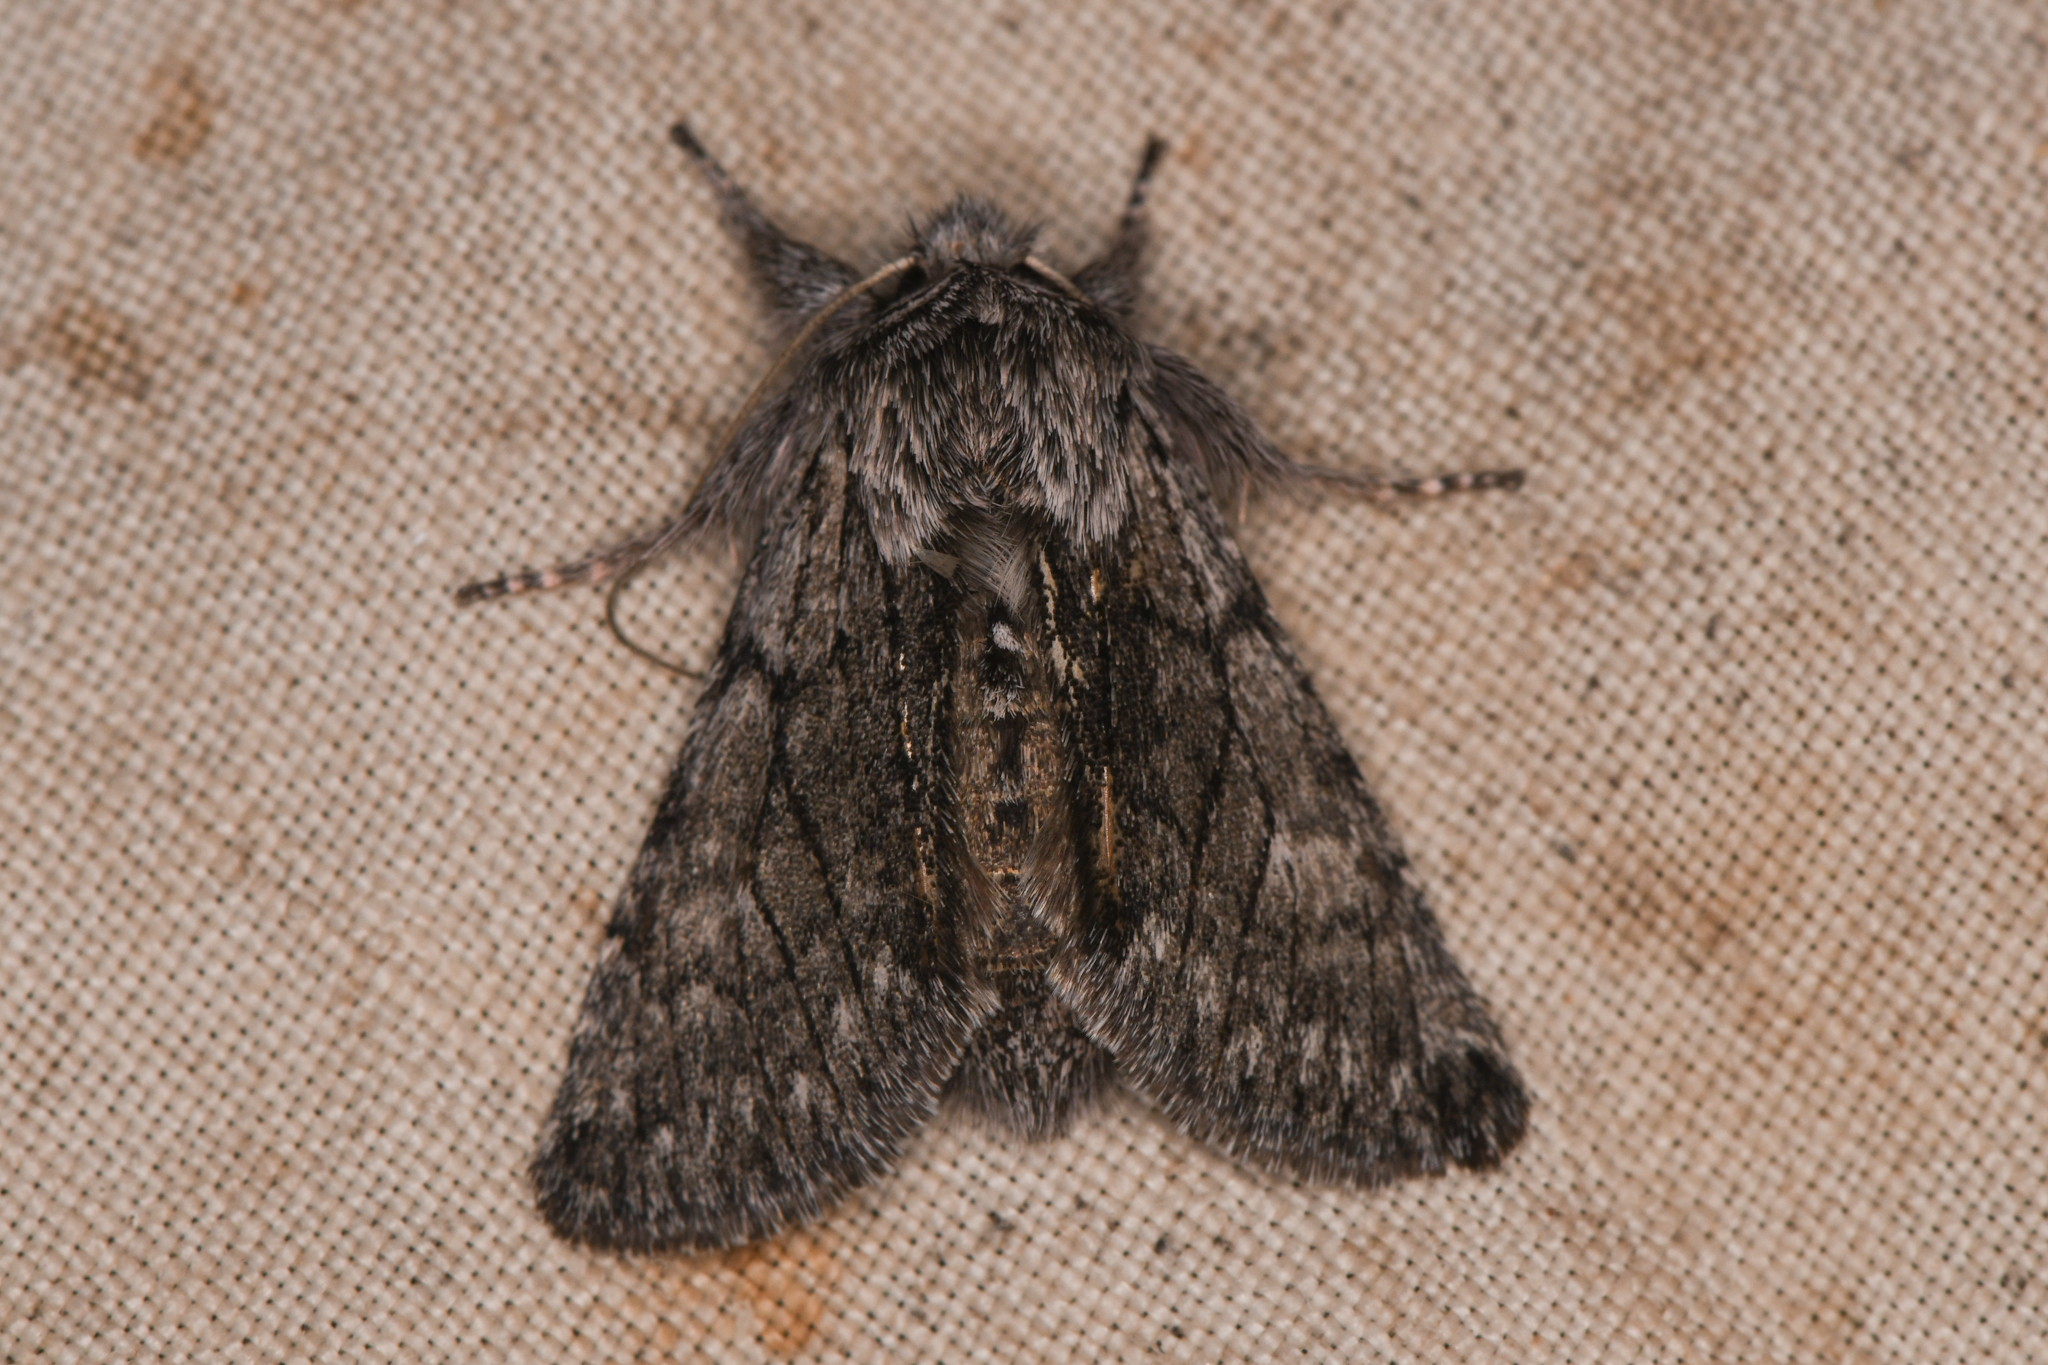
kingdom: Animalia
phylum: Arthropoda
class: Insecta
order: Lepidoptera
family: Noctuidae
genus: Pleromelloida
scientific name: Pleromelloida conserta
